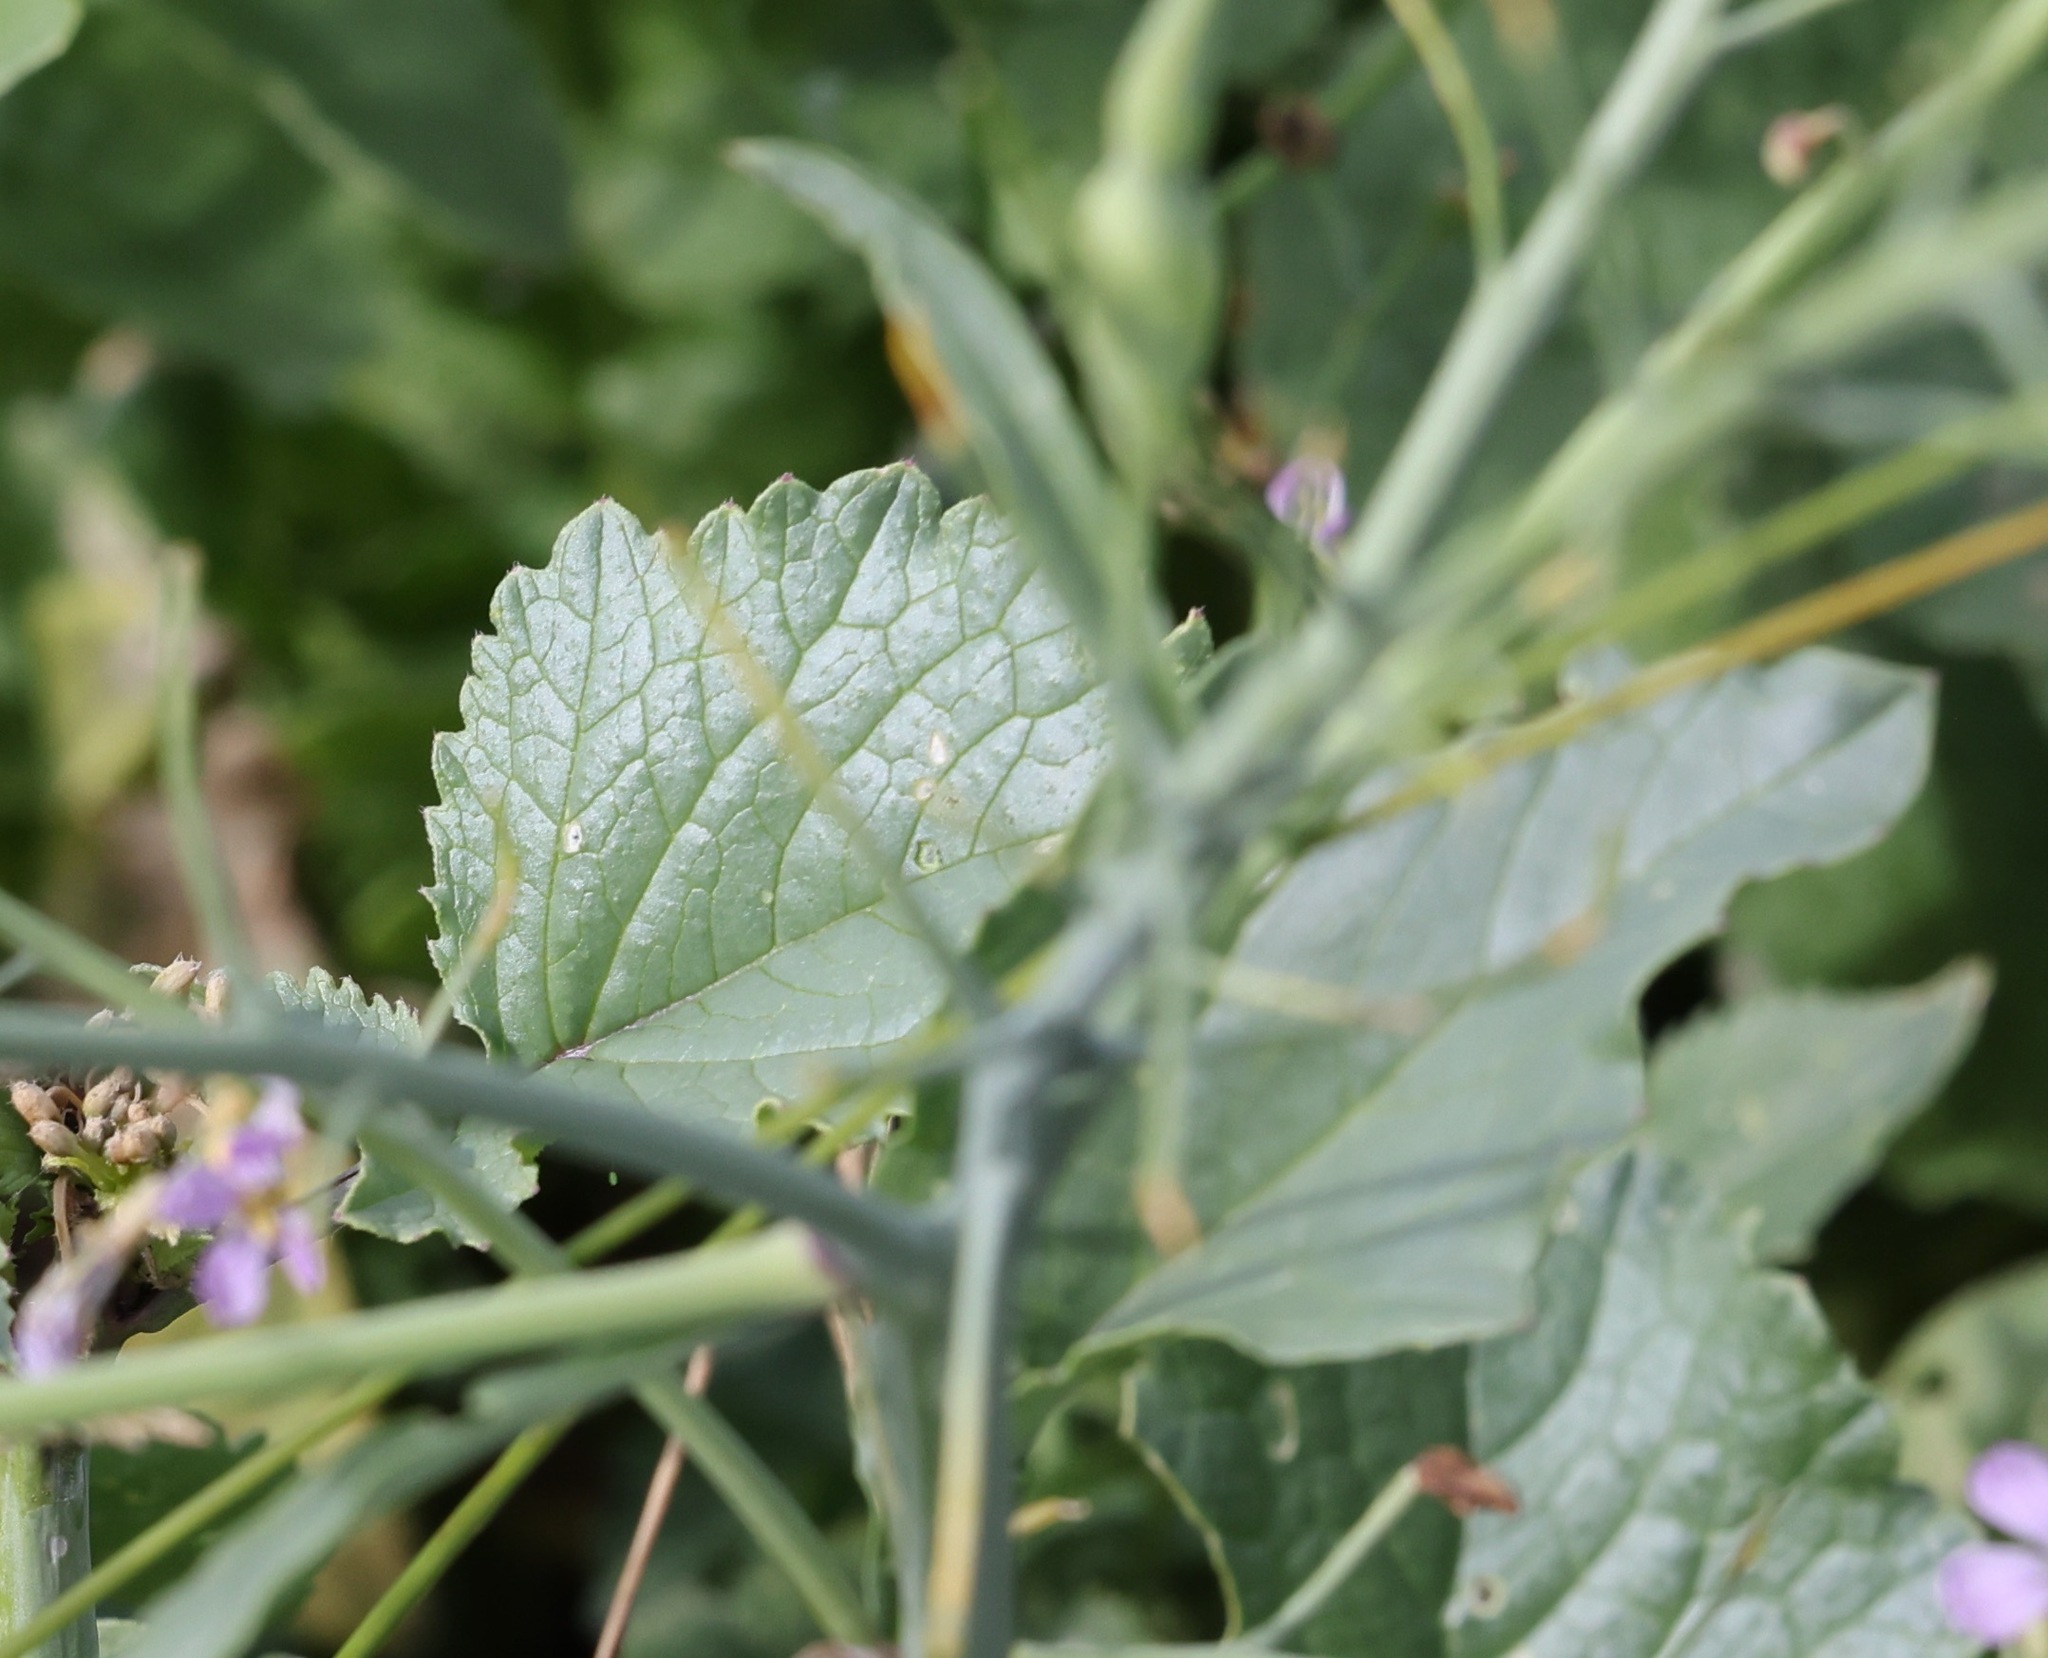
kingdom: Plantae
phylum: Tracheophyta
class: Magnoliopsida
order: Brassicales
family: Brassicaceae
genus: Raphanus
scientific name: Raphanus sativus
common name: Cultivated radish
